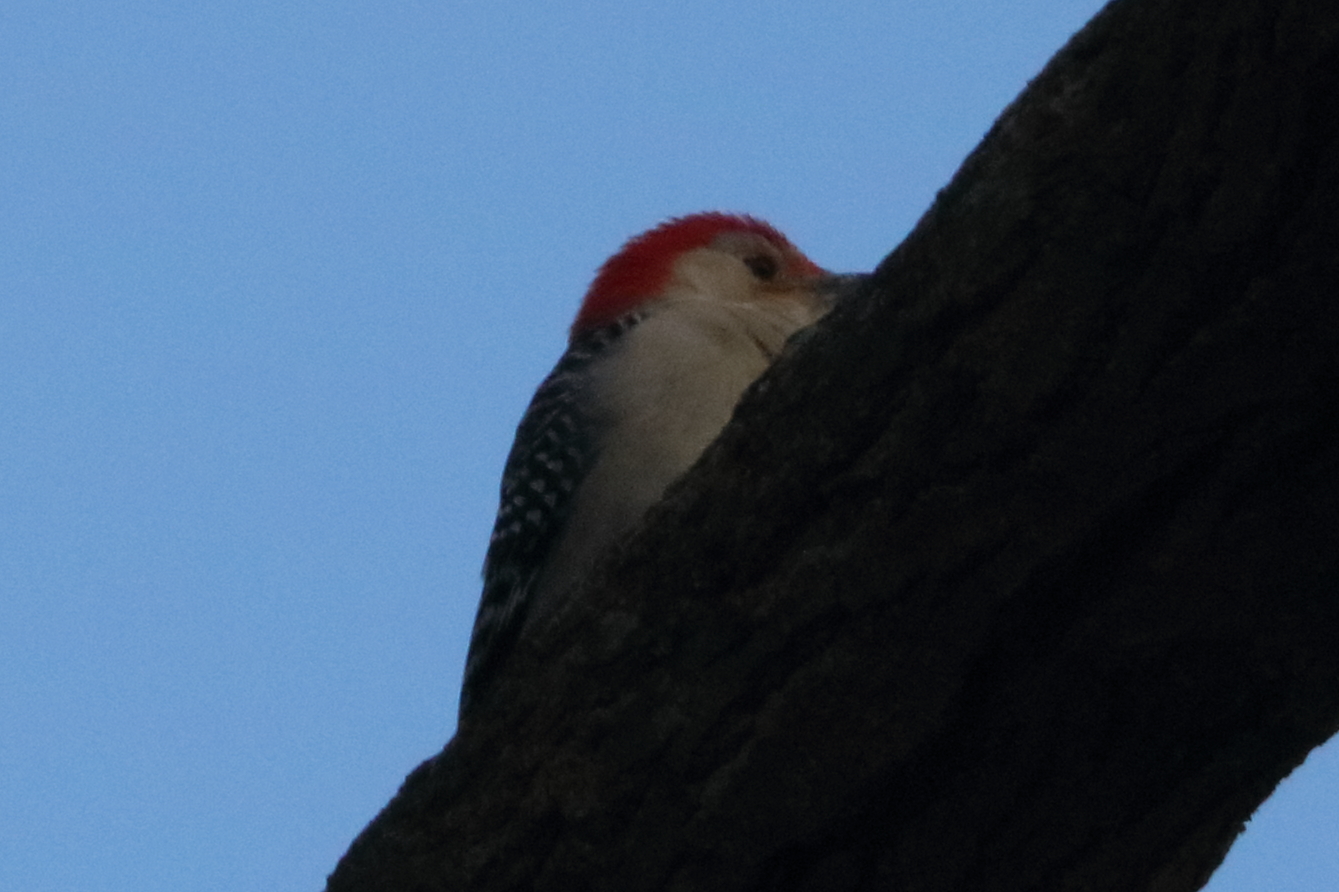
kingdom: Animalia
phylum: Chordata
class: Aves
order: Piciformes
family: Picidae
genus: Melanerpes
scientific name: Melanerpes carolinus
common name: Red-bellied woodpecker
